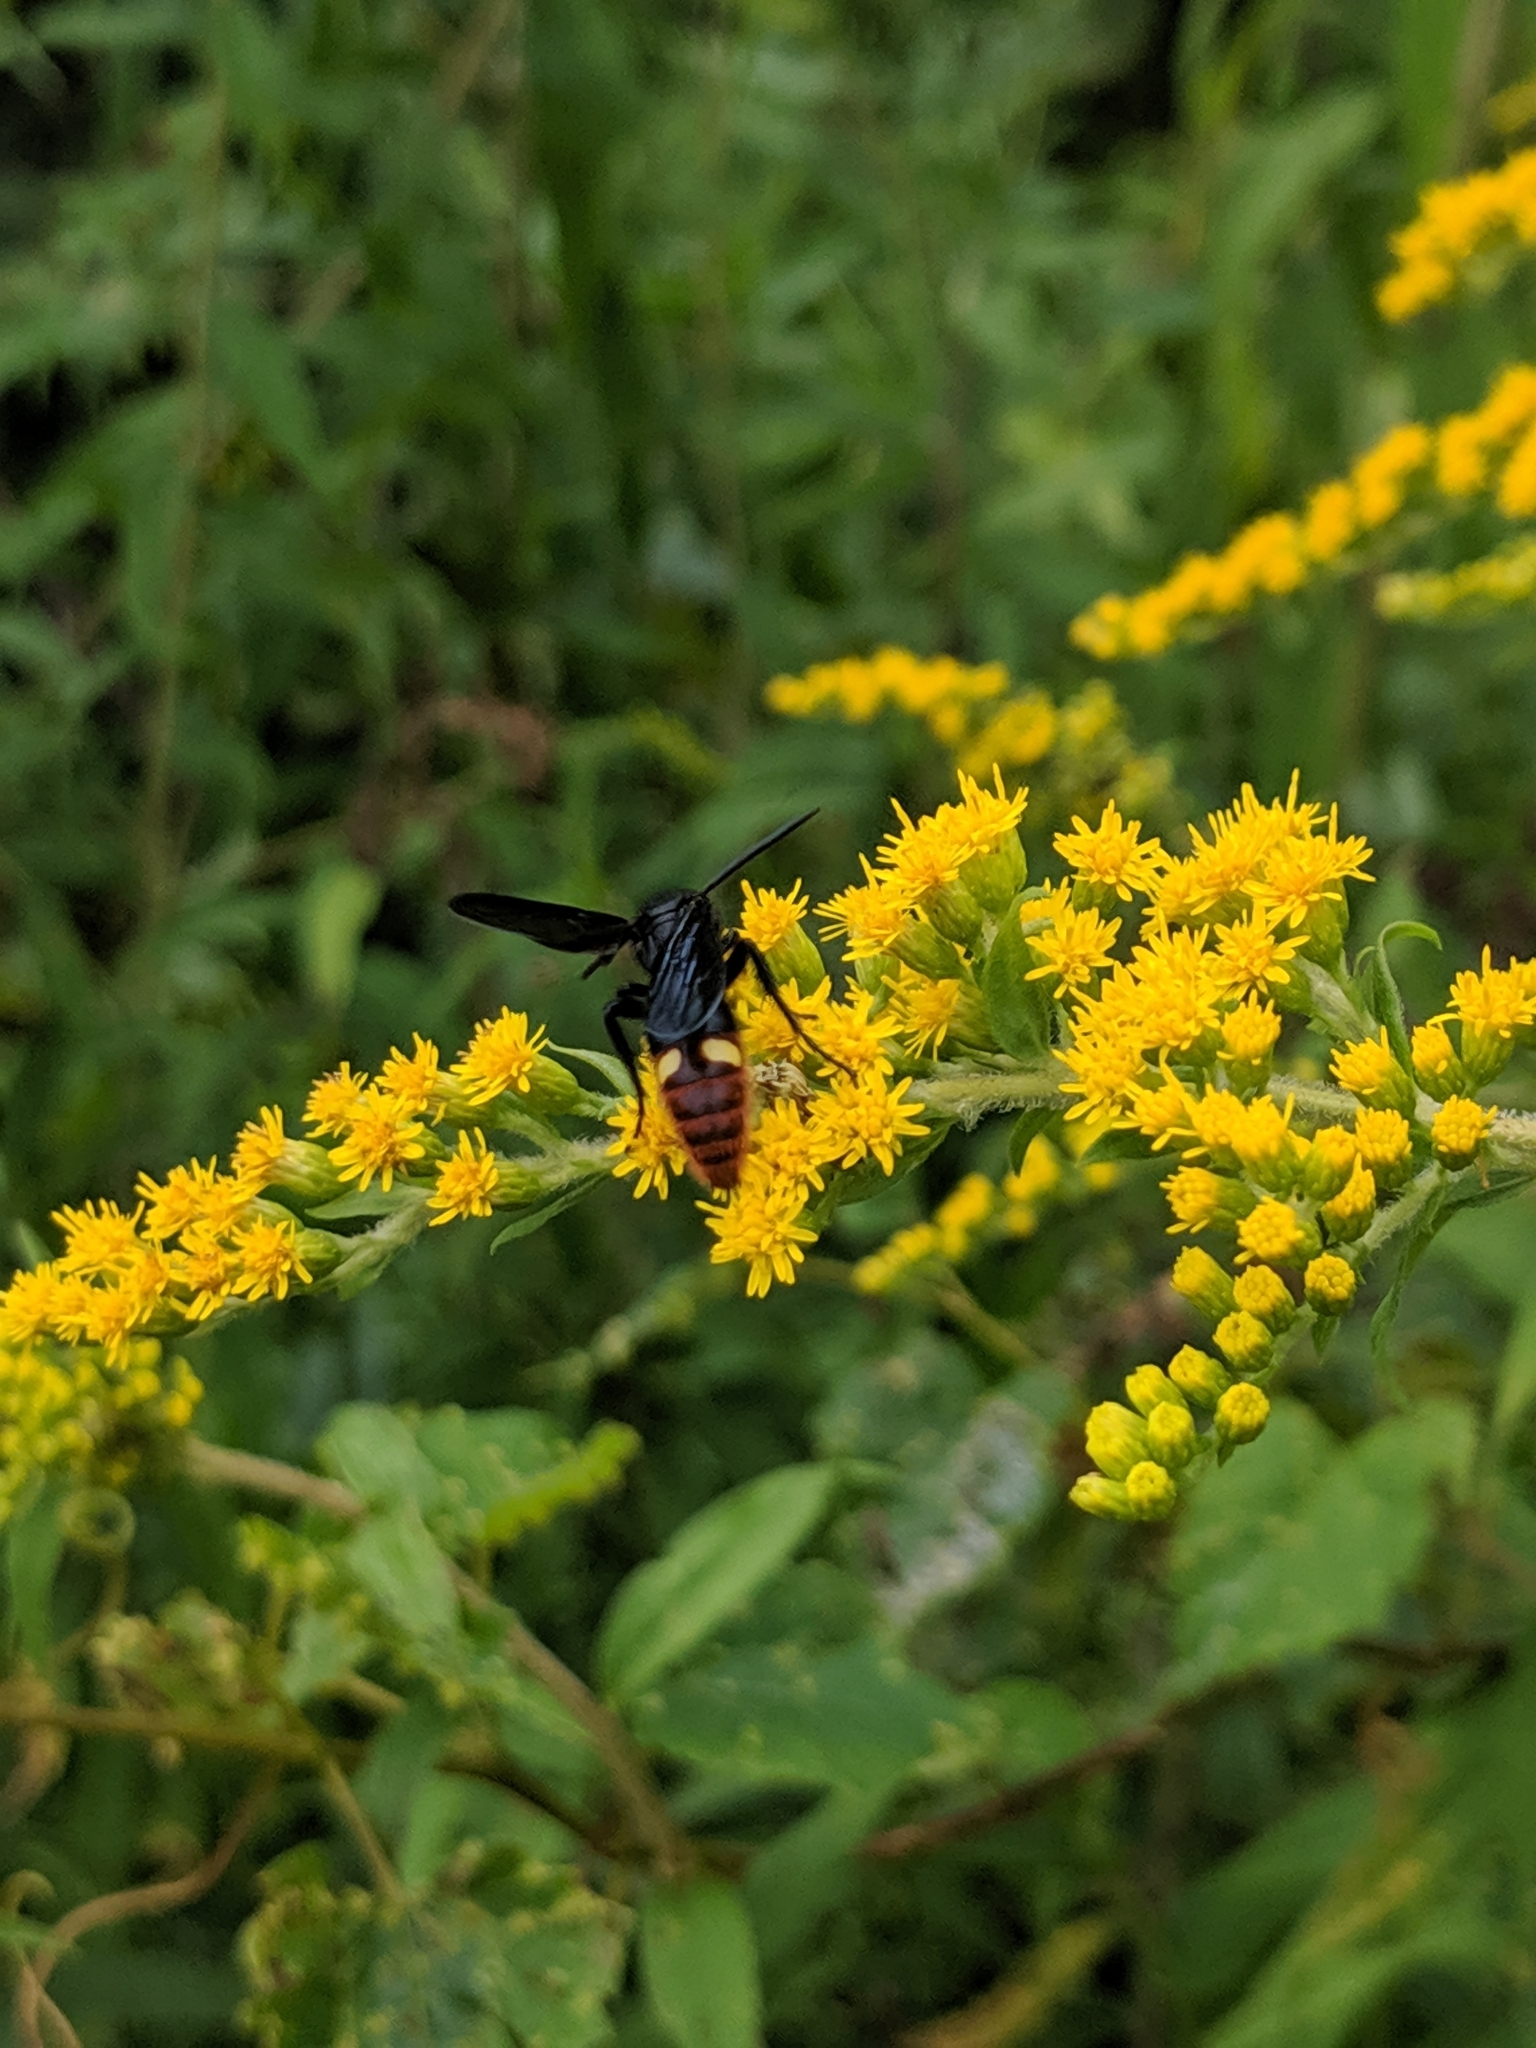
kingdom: Animalia
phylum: Arthropoda
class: Insecta
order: Hymenoptera
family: Scoliidae
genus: Scolia
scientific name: Scolia dubia
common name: Blue-winged scoliid wasp
